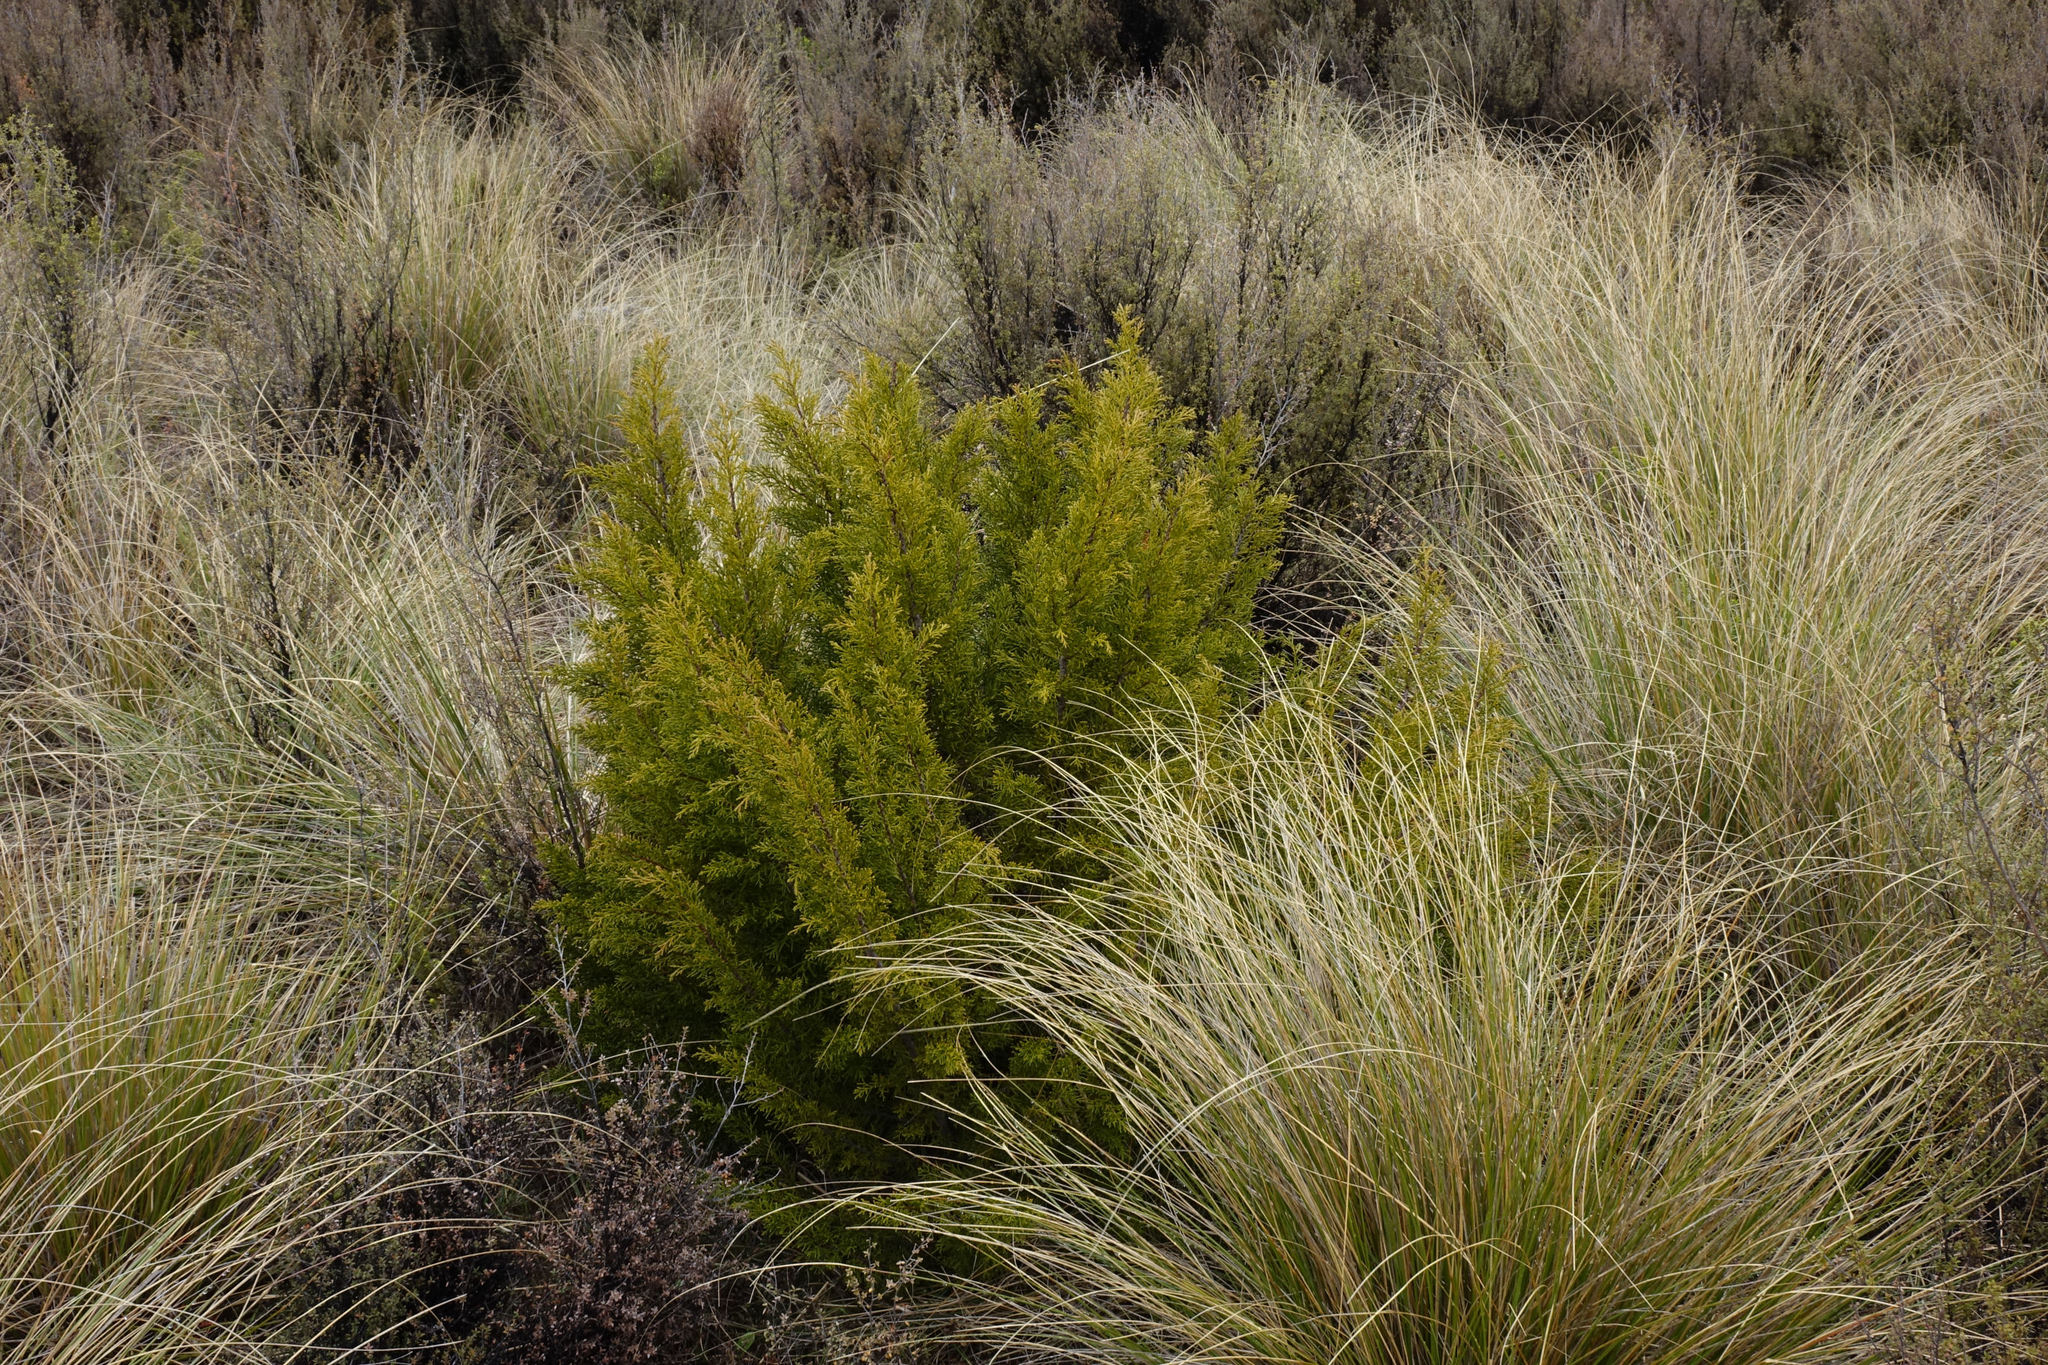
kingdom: Plantae
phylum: Tracheophyta
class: Pinopsida
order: Pinales
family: Podocarpaceae
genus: Halocarpus
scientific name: Halocarpus bidwillii
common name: Bog pine
